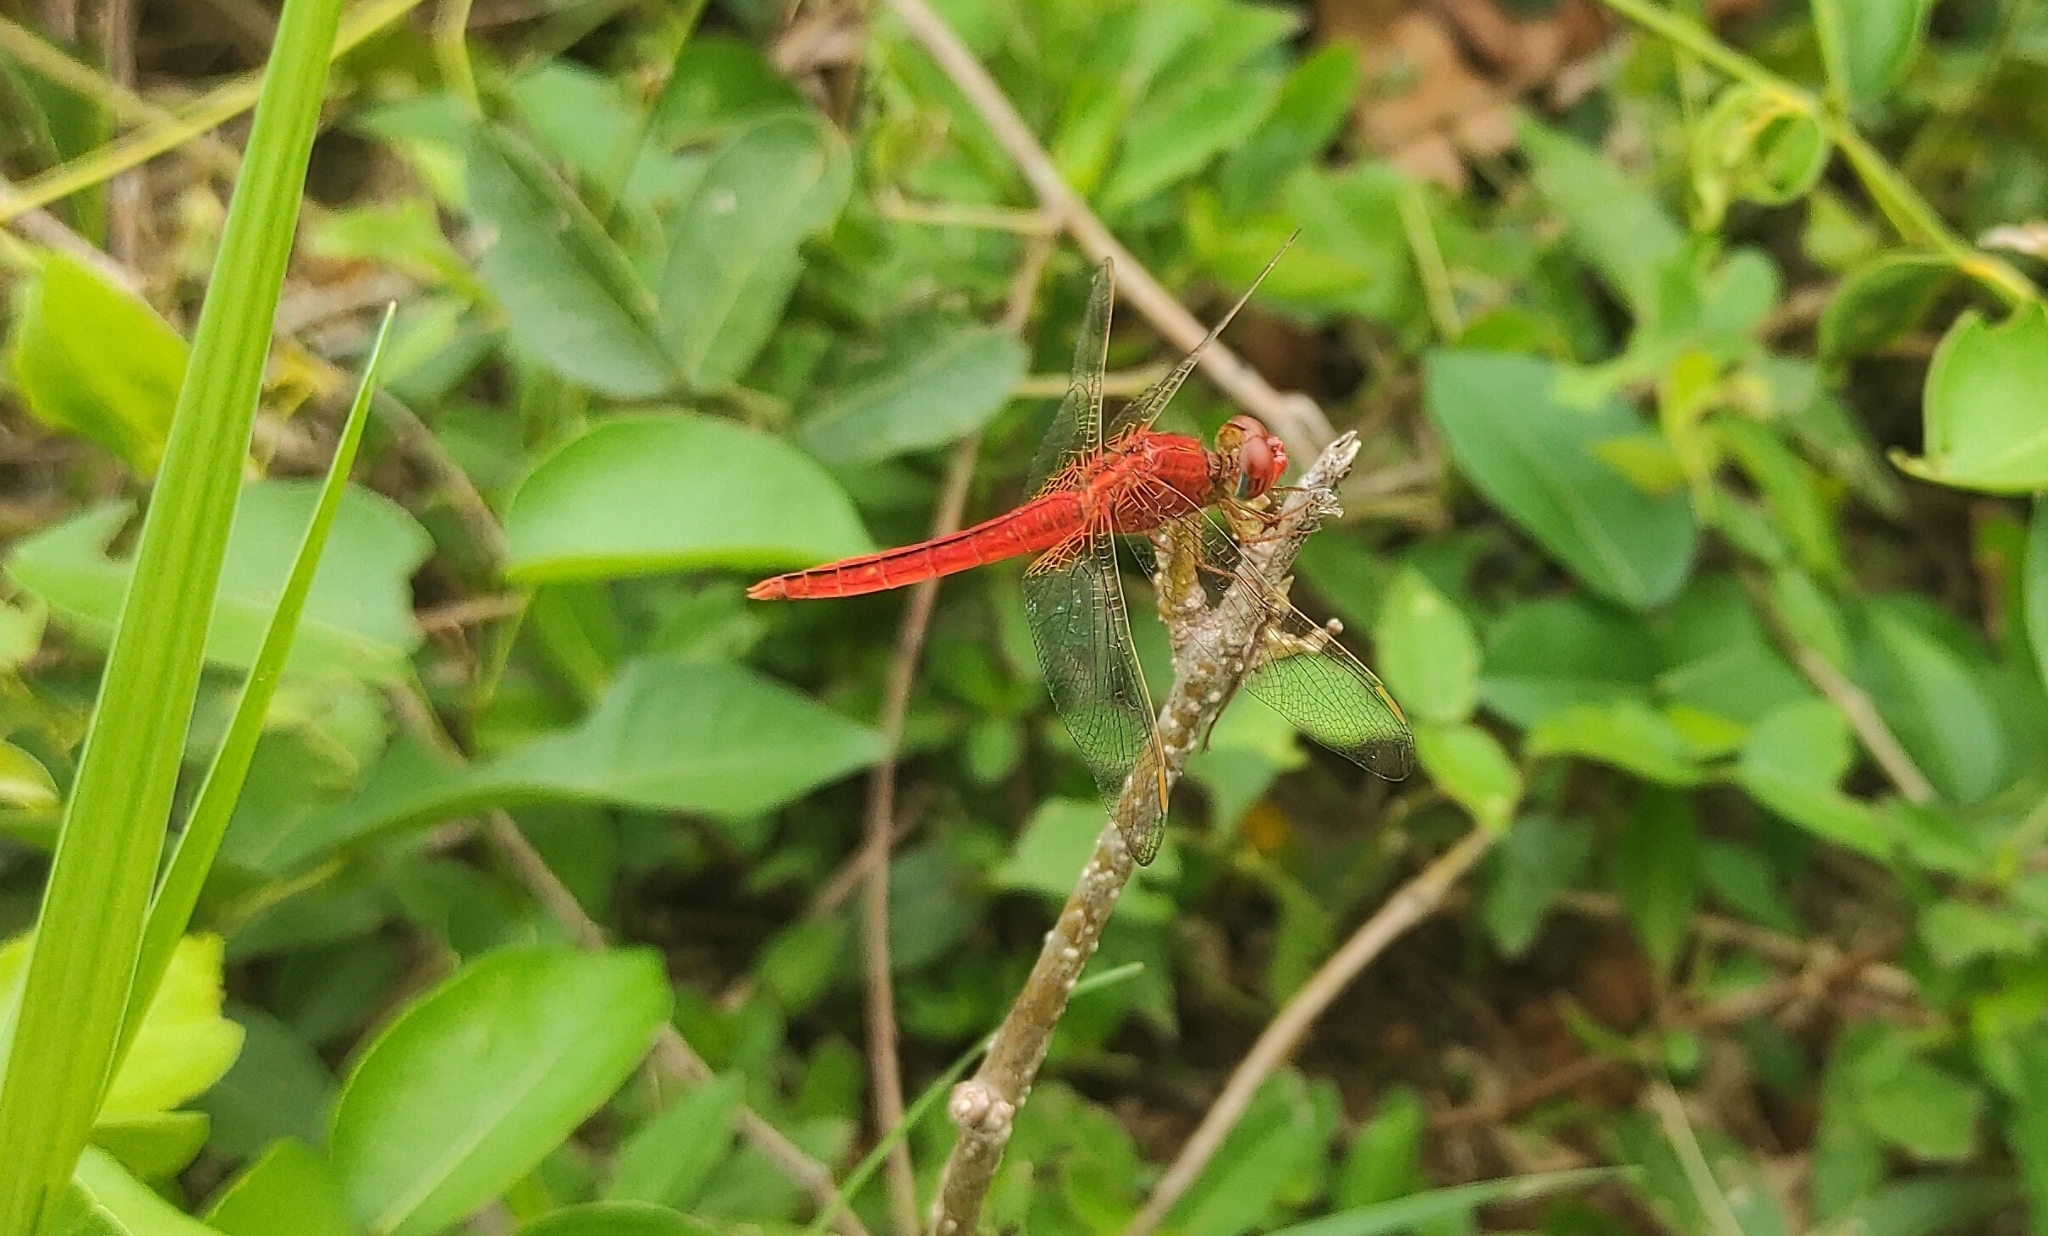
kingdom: Animalia
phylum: Arthropoda
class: Insecta
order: Odonata
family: Libellulidae
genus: Crocothemis
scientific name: Crocothemis servilia
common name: Scarlet skimmer
